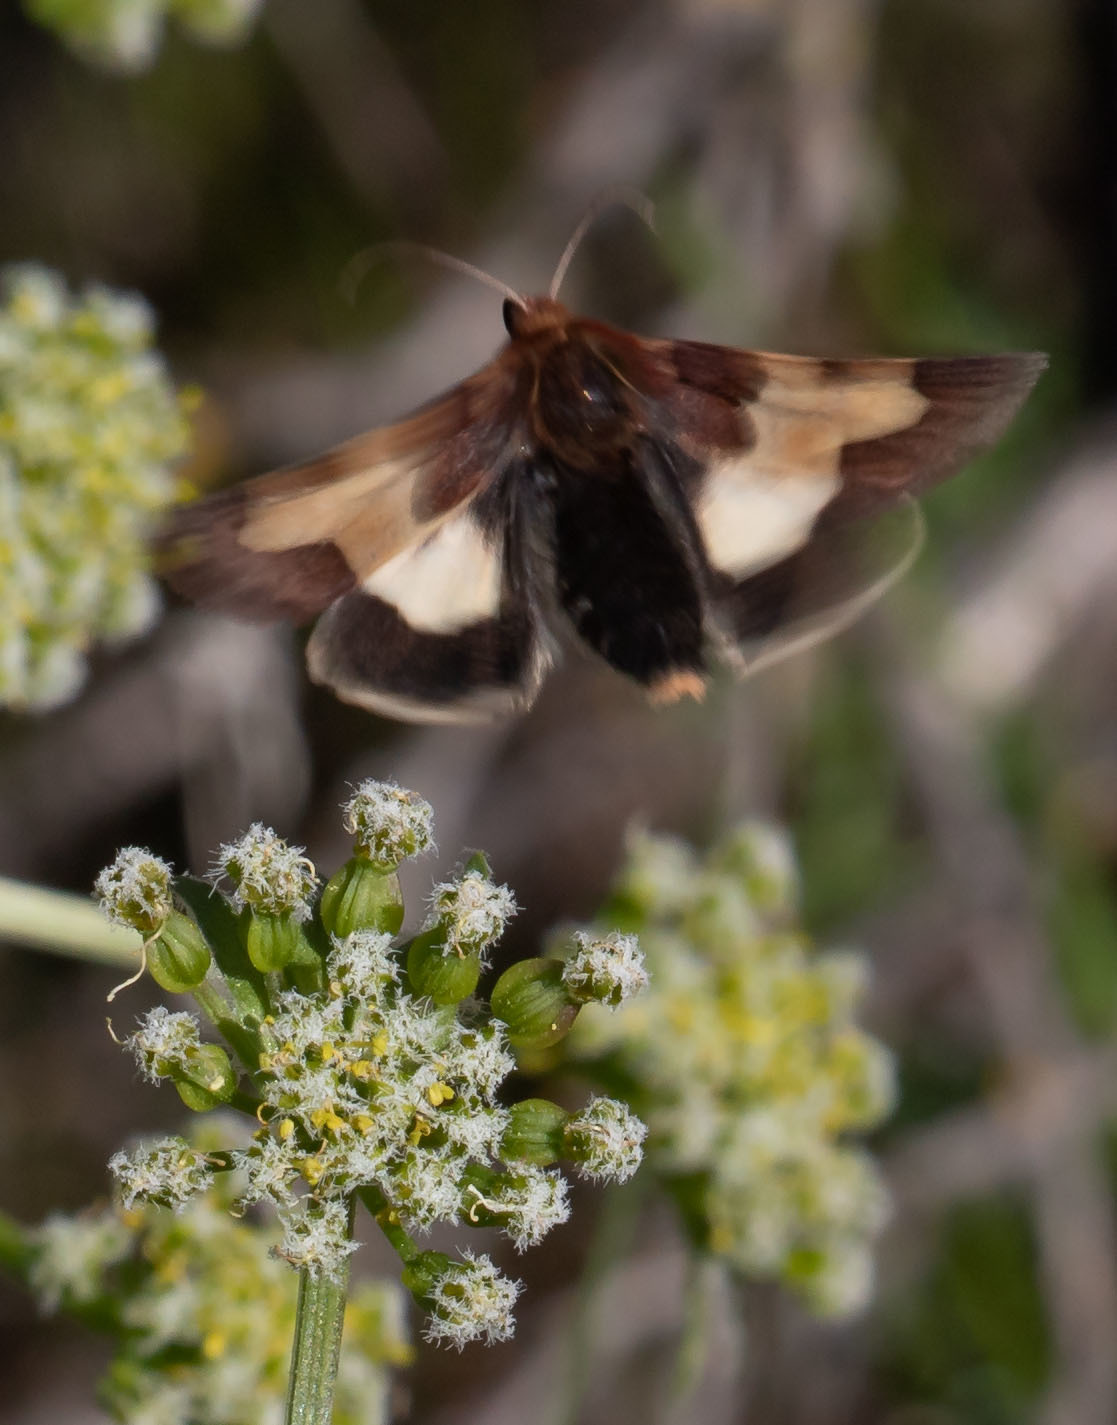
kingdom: Animalia
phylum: Arthropoda
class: Insecta
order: Lepidoptera
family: Noctuidae
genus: Heliothis
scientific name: Heliothis prorupta
